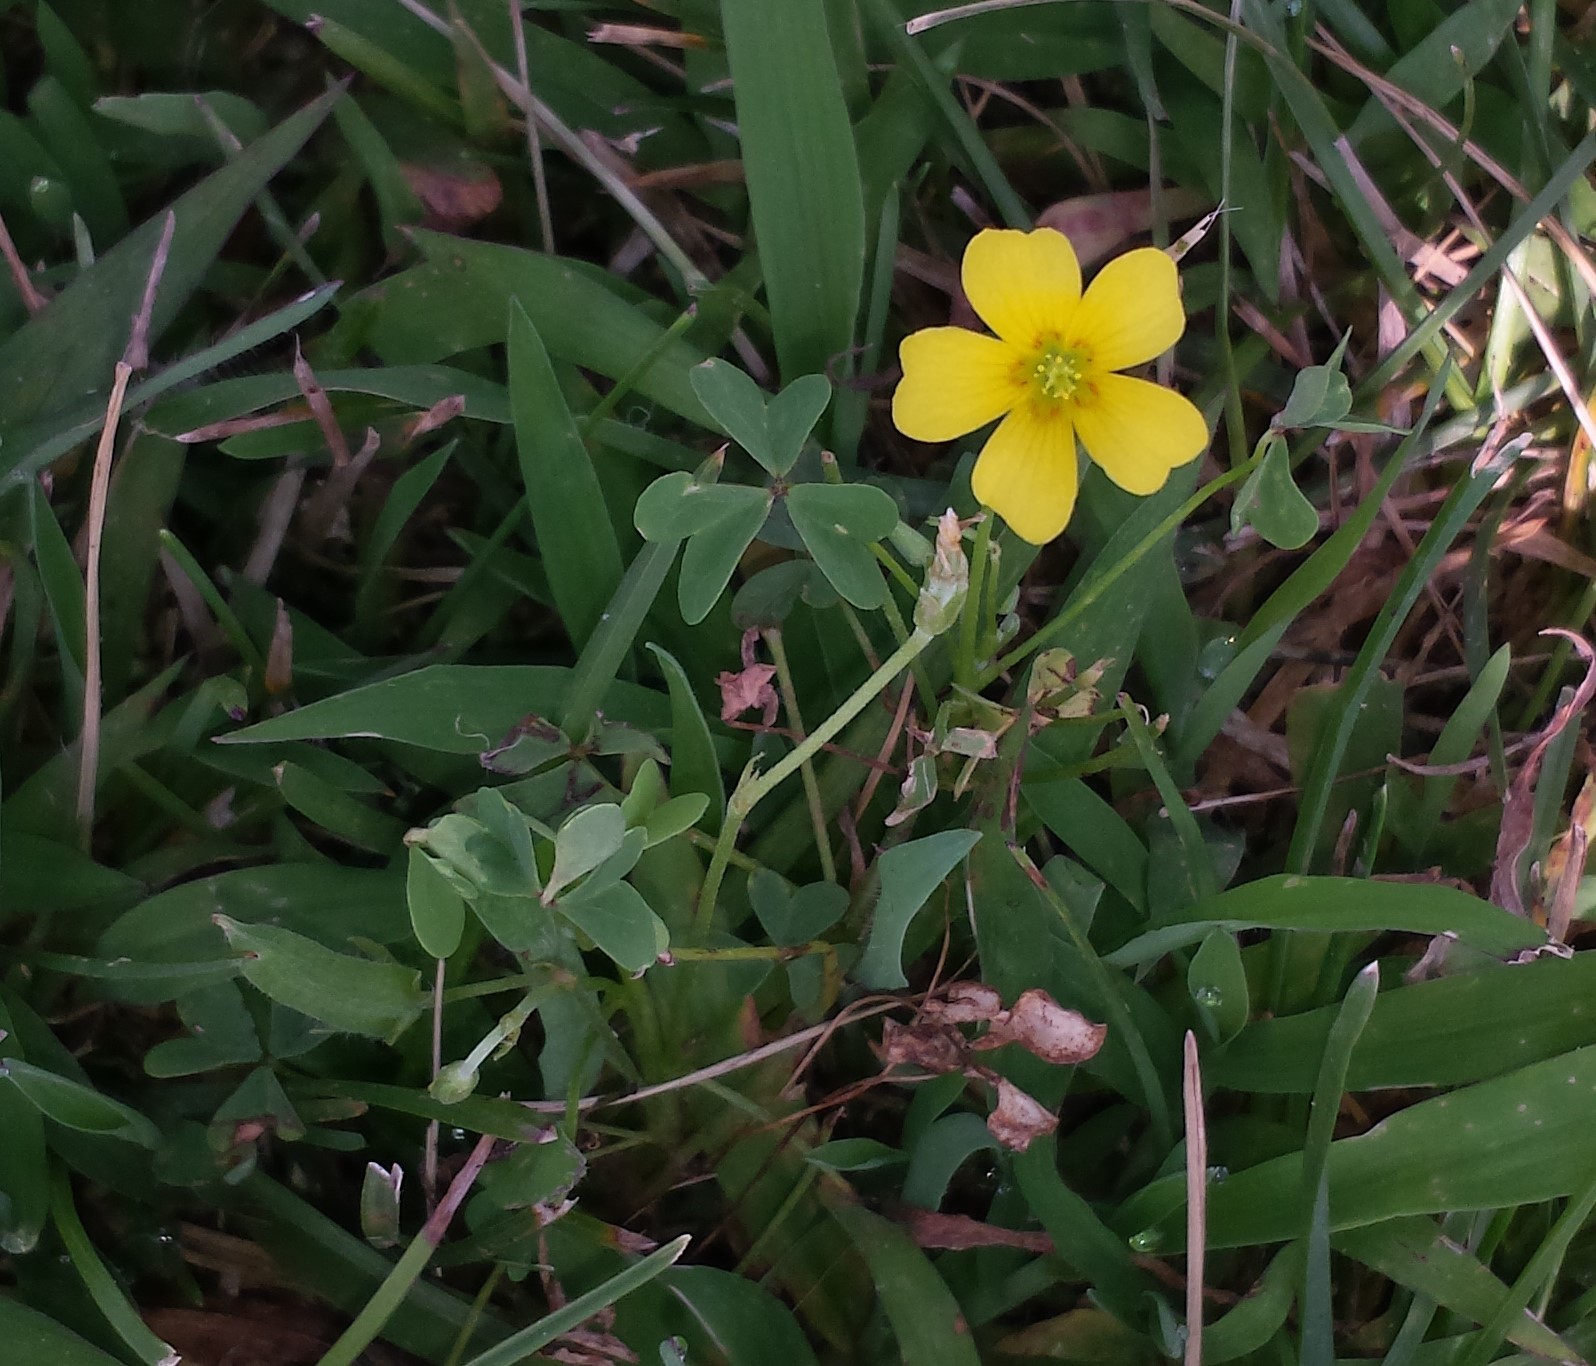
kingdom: Plantae
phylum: Tracheophyta
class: Magnoliopsida
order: Oxalidales
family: Oxalidaceae
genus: Oxalis
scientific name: Oxalis
